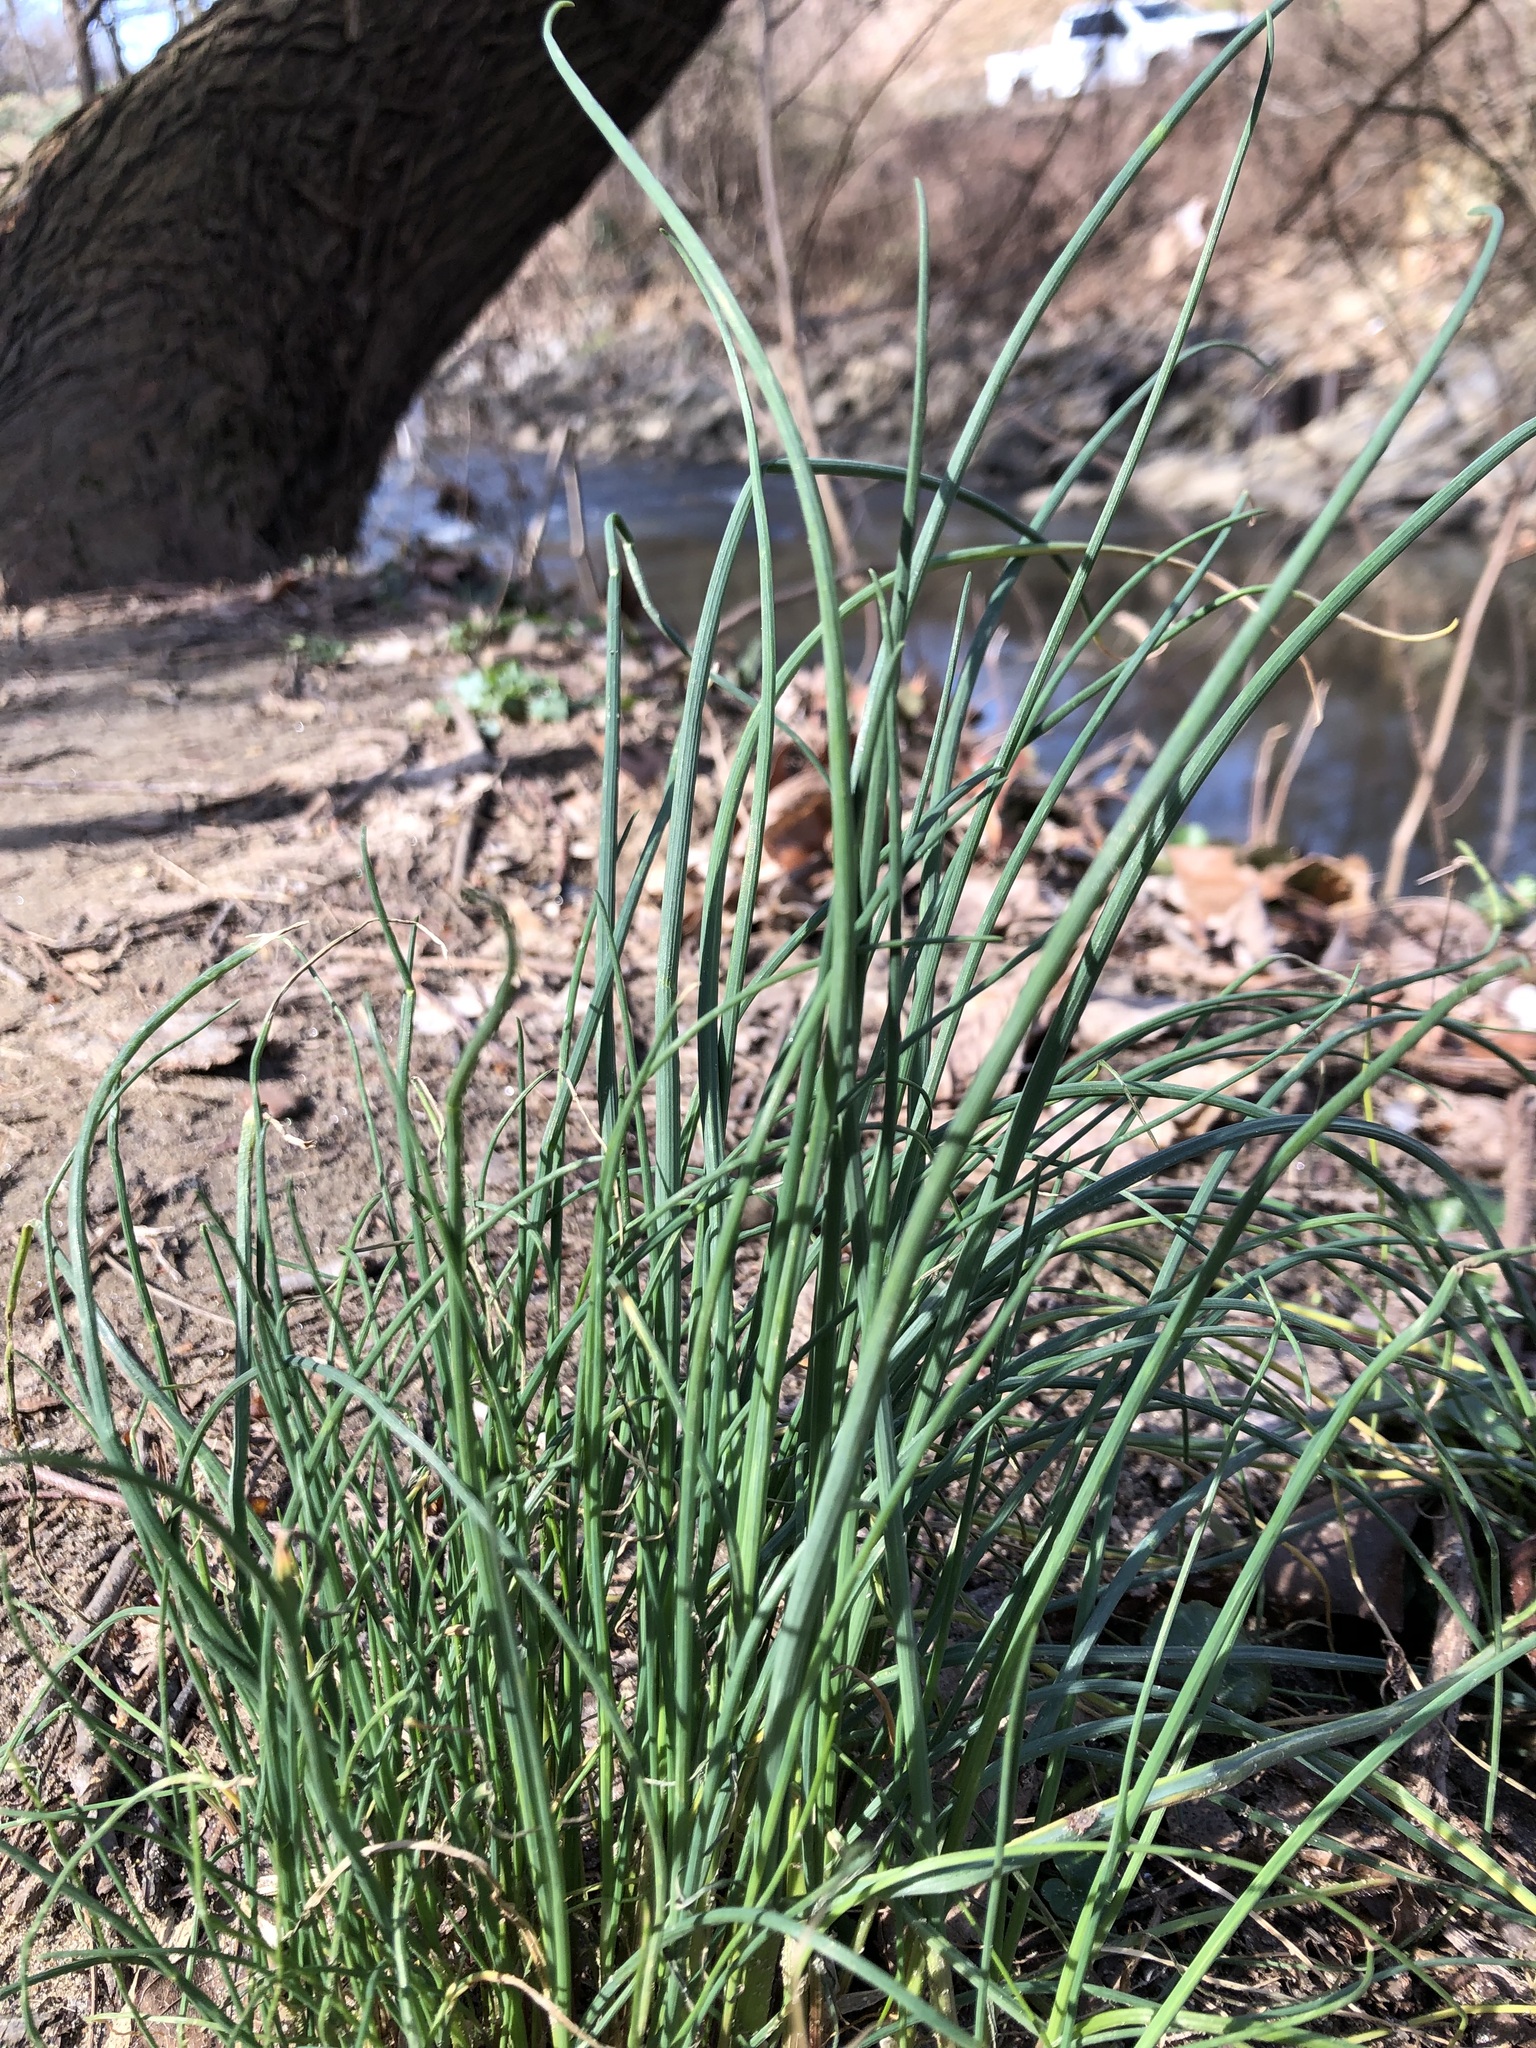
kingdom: Plantae
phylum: Tracheophyta
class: Liliopsida
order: Asparagales
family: Amaryllidaceae
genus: Allium
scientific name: Allium vineale
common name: Crow garlic
